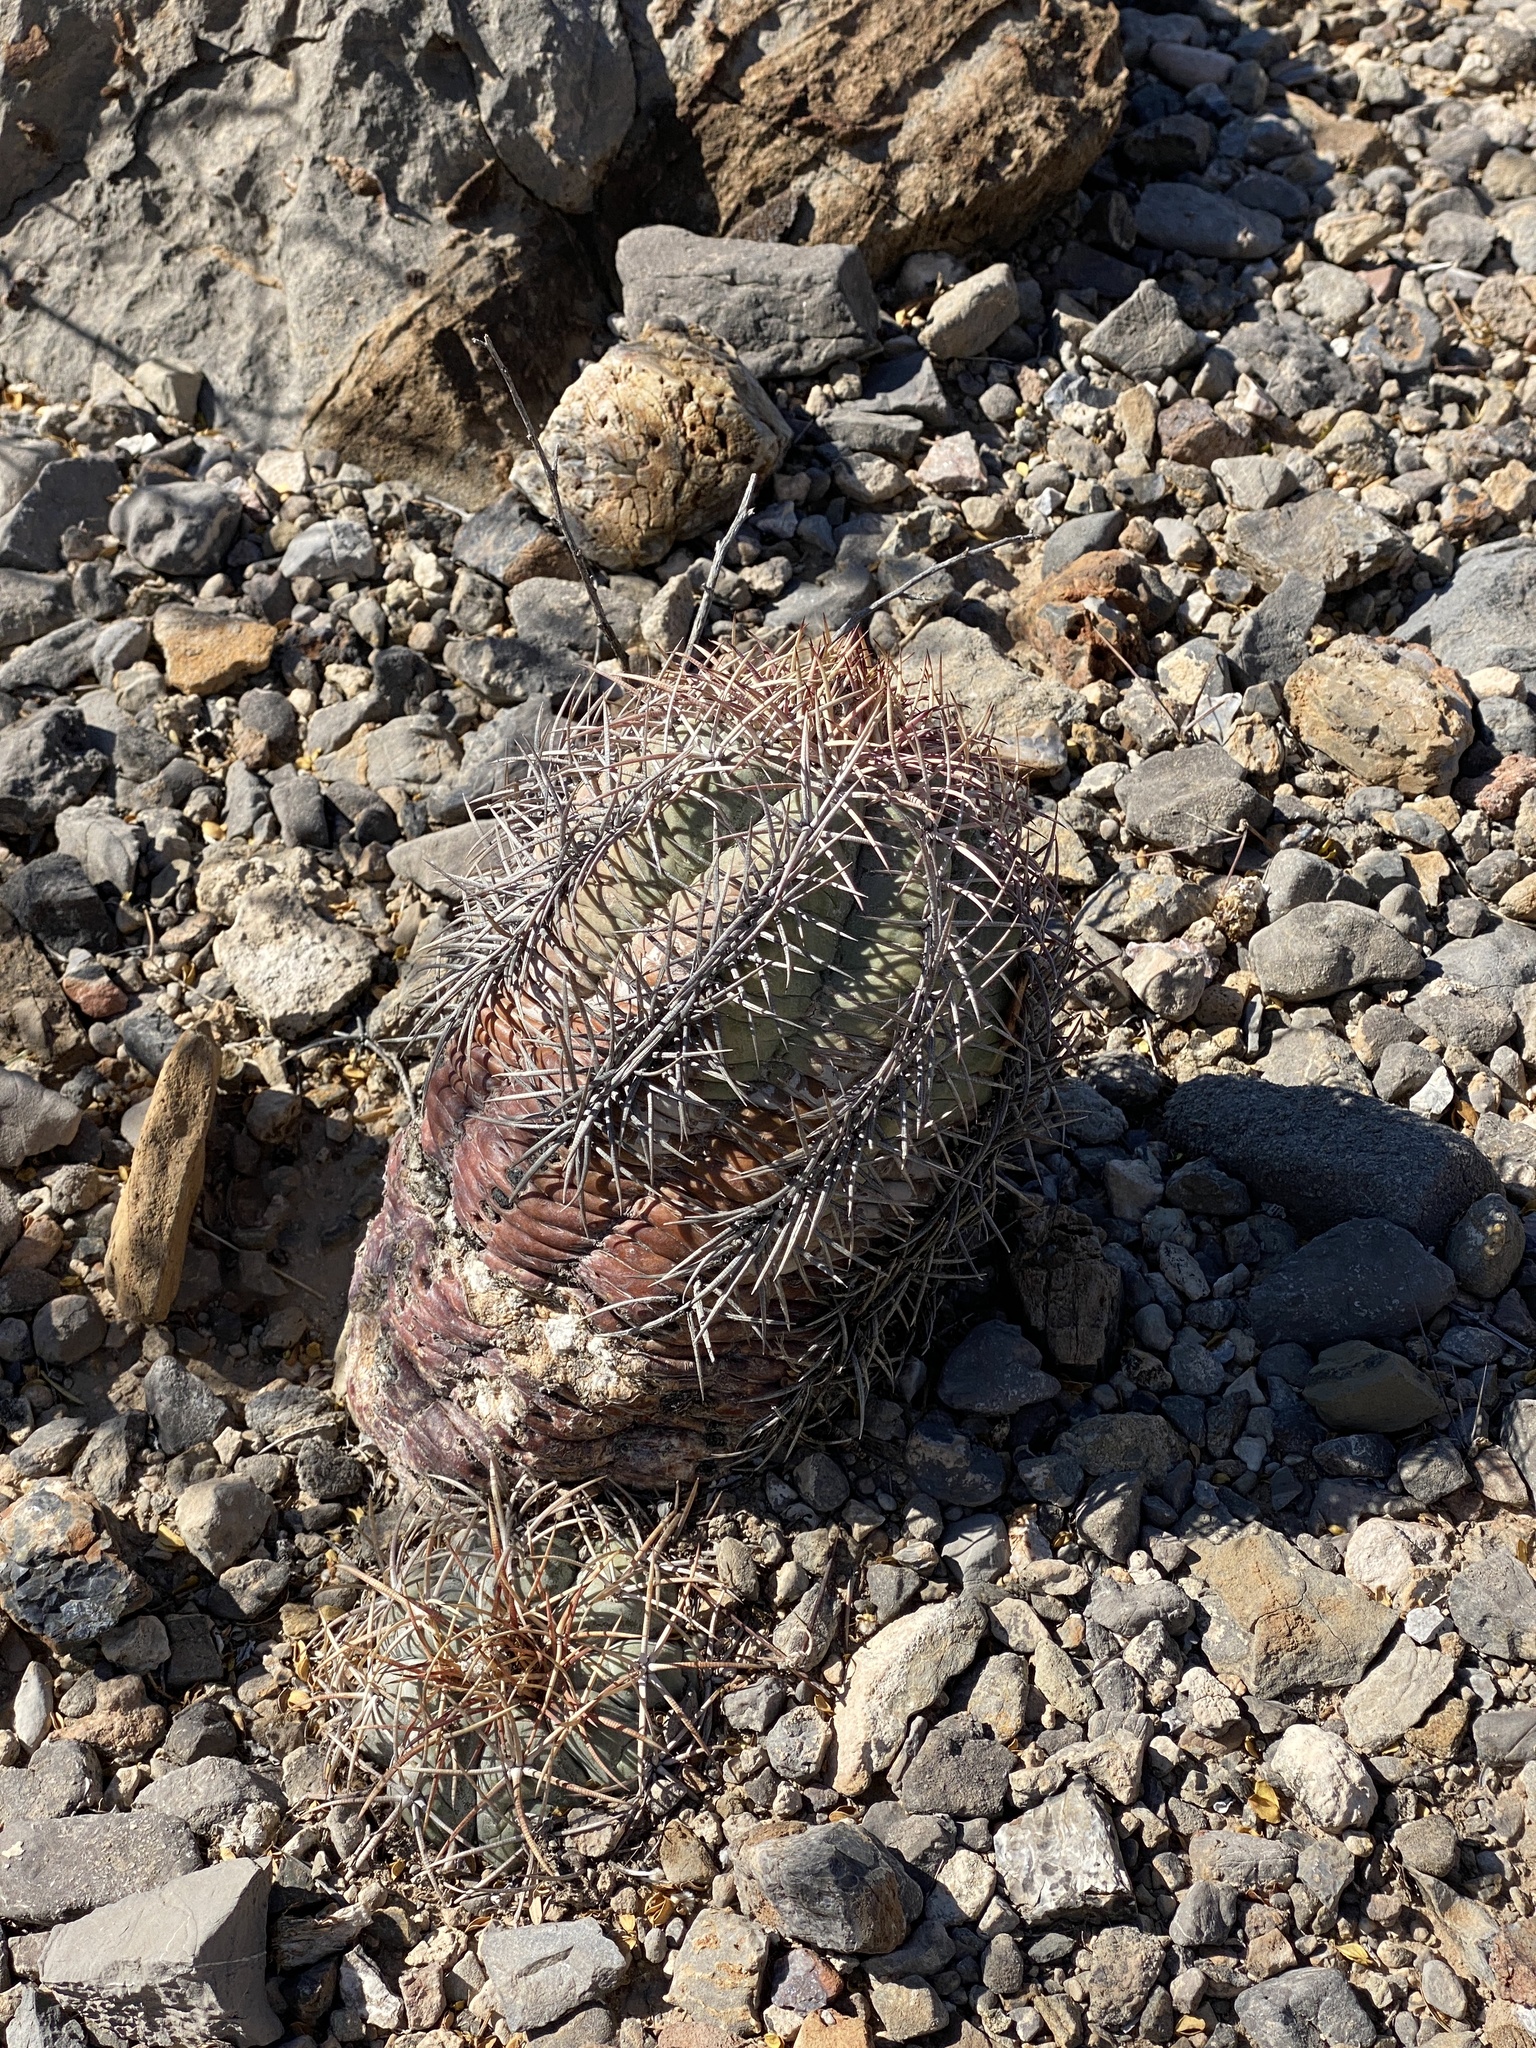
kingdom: Plantae
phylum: Tracheophyta
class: Magnoliopsida
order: Caryophyllales
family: Cactaceae
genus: Echinocactus
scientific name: Echinocactus horizonthalonius
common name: Devilshead
